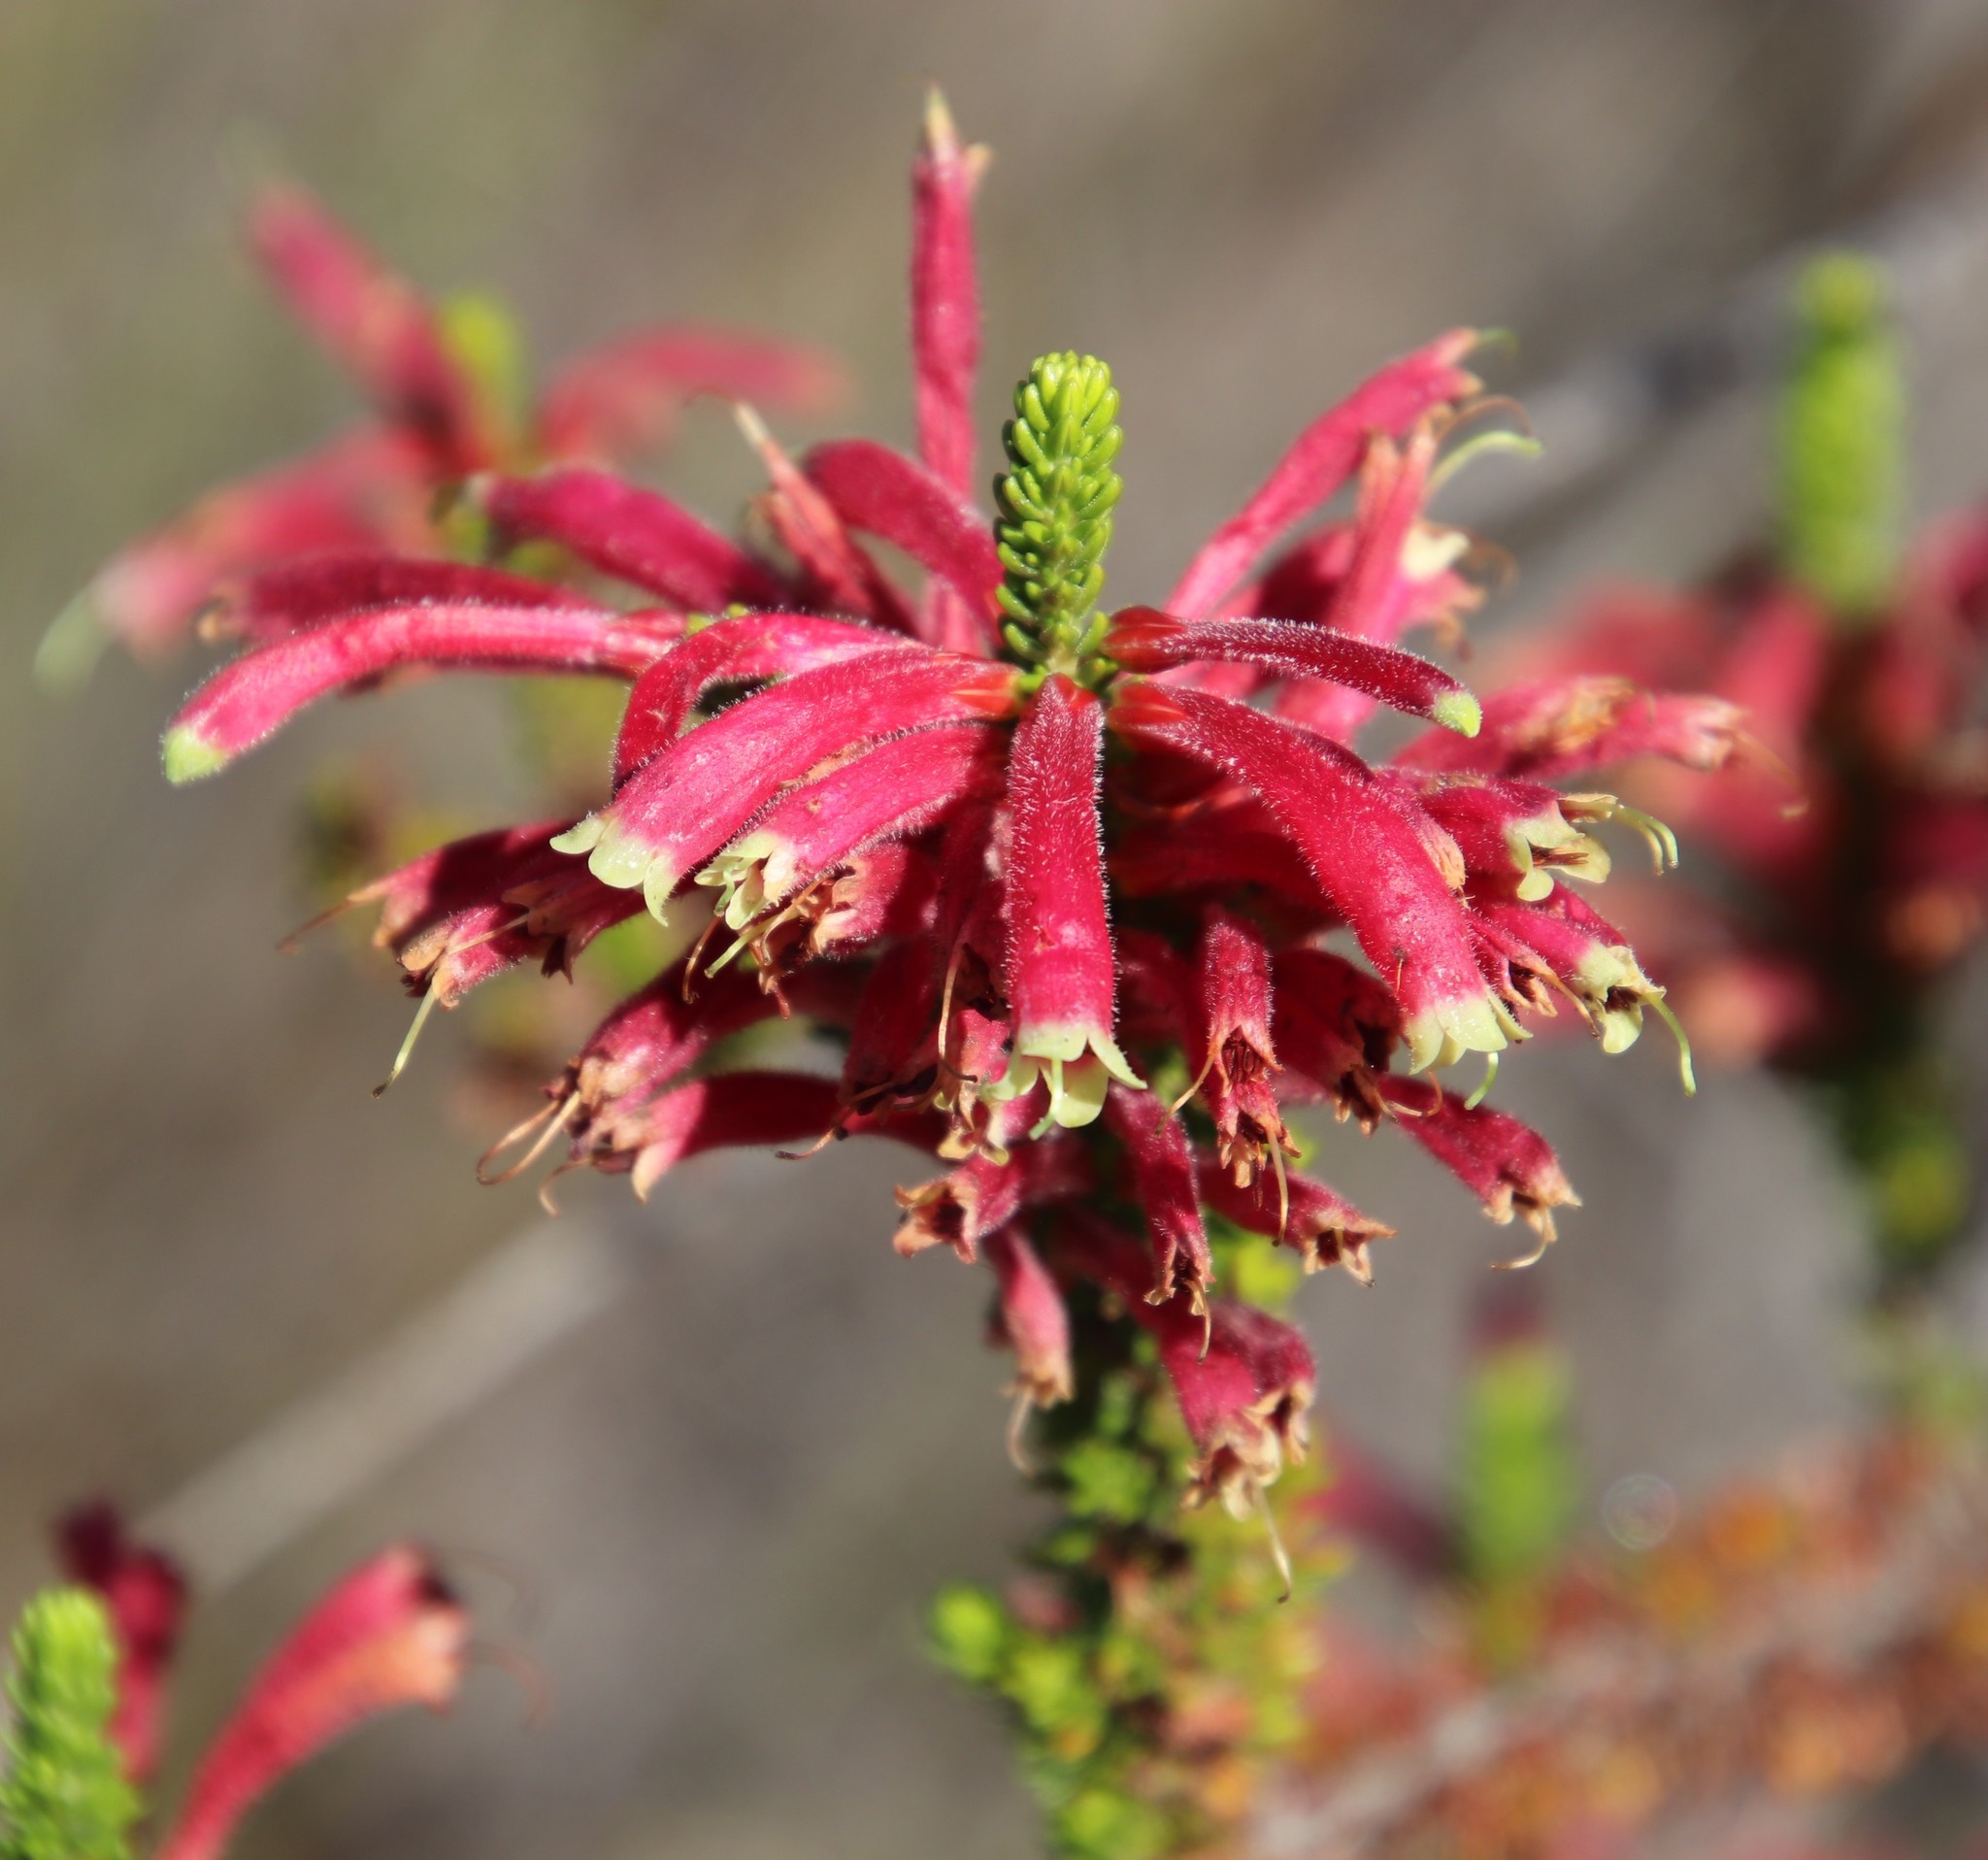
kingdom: Plantae
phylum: Tracheophyta
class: Magnoliopsida
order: Ericales
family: Ericaceae
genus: Erica
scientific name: Erica densifolia
